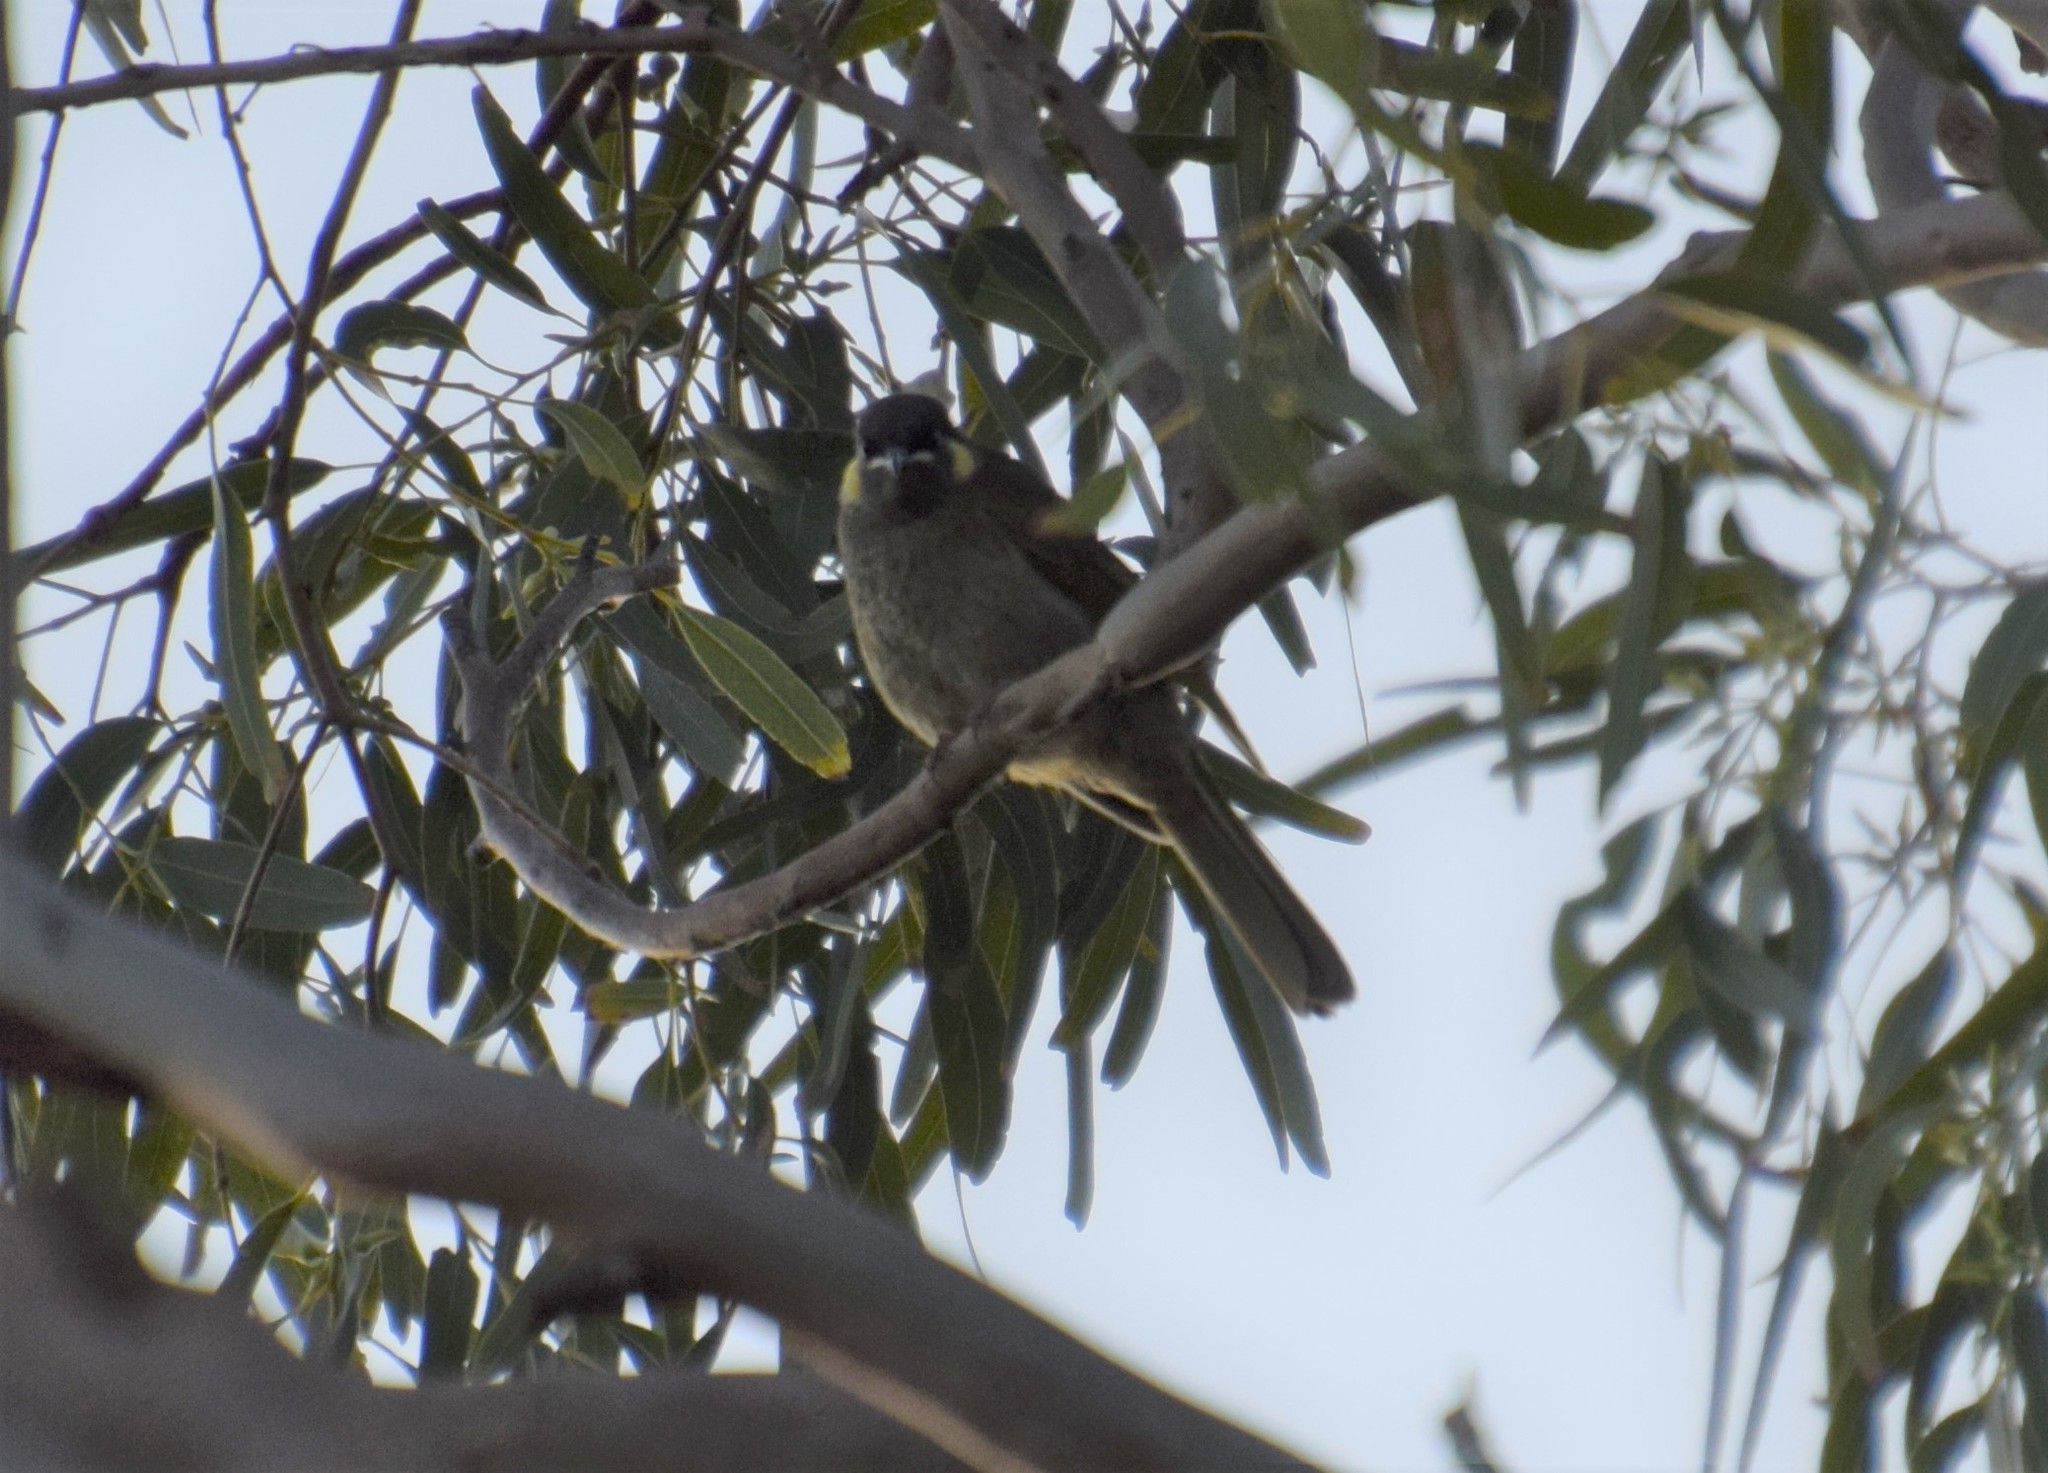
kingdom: Animalia
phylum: Chordata
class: Aves
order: Passeriformes
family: Meliphagidae
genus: Meliphaga
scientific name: Meliphaga lewinii
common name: Lewin's honeyeater
